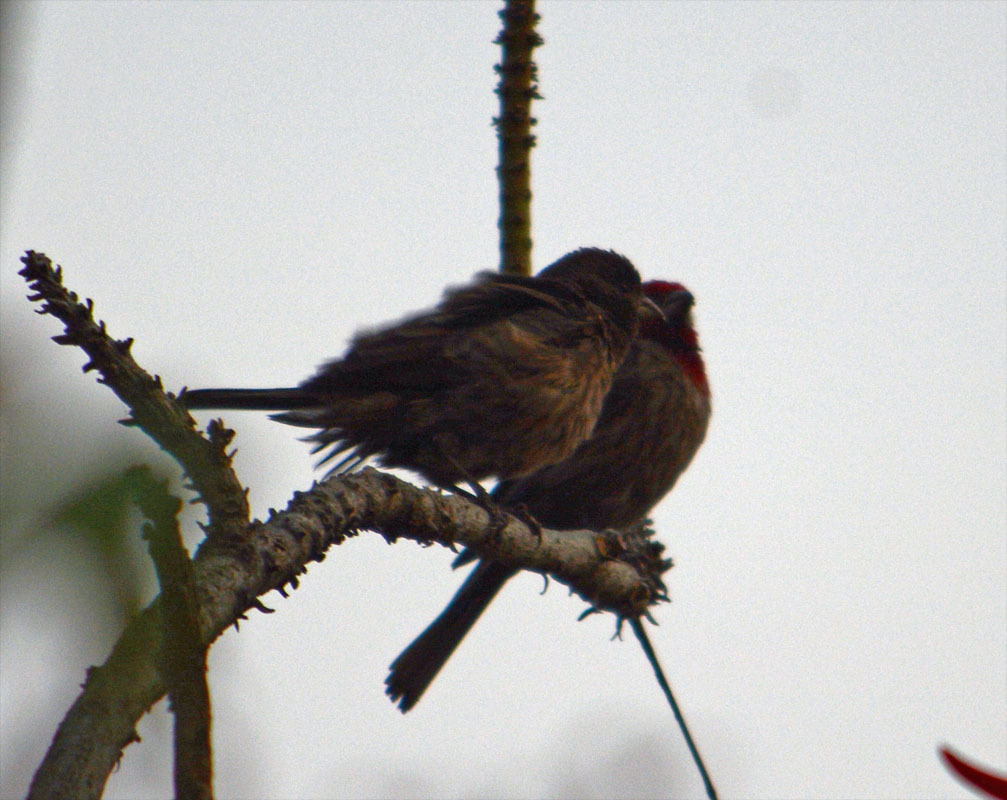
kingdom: Animalia
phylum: Chordata
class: Aves
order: Passeriformes
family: Fringillidae
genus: Haemorhous
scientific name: Haemorhous mexicanus
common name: House finch
